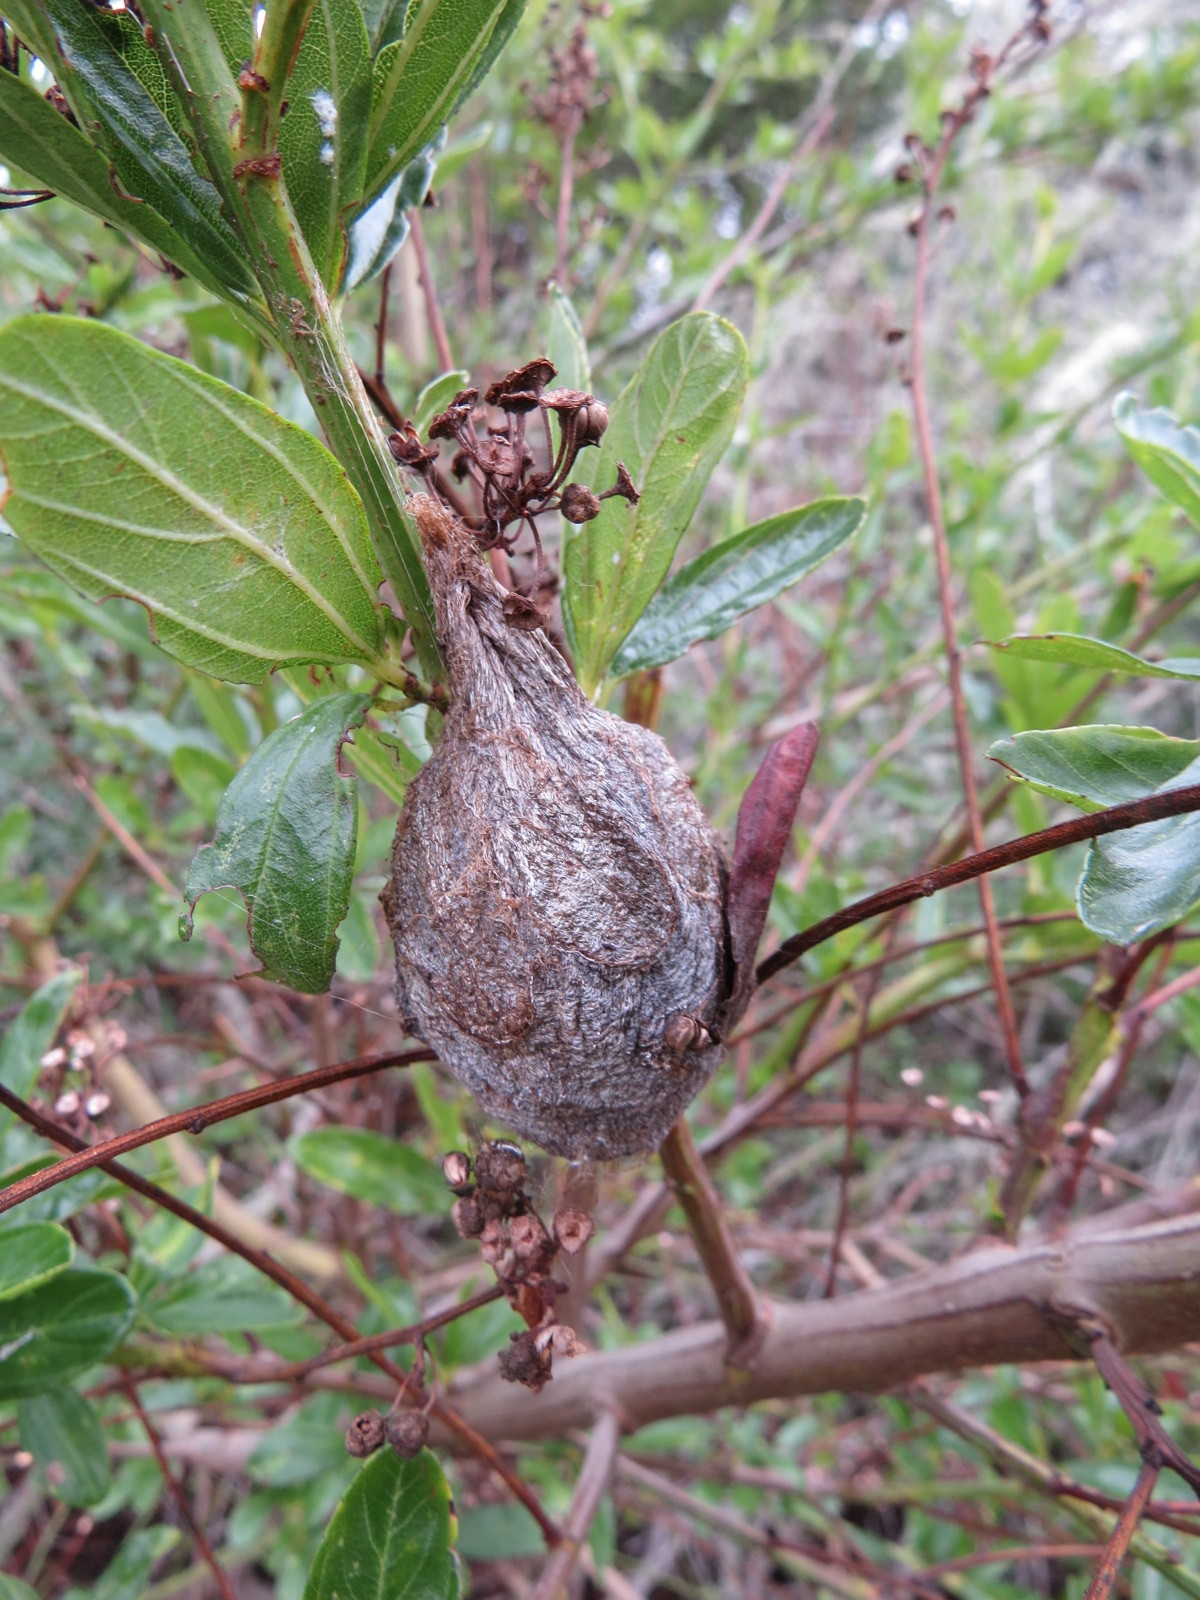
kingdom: Animalia
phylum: Arthropoda
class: Insecta
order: Lepidoptera
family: Saturniidae
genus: Hyalophora
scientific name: Hyalophora euryalus
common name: Ceanothus silkmoth
